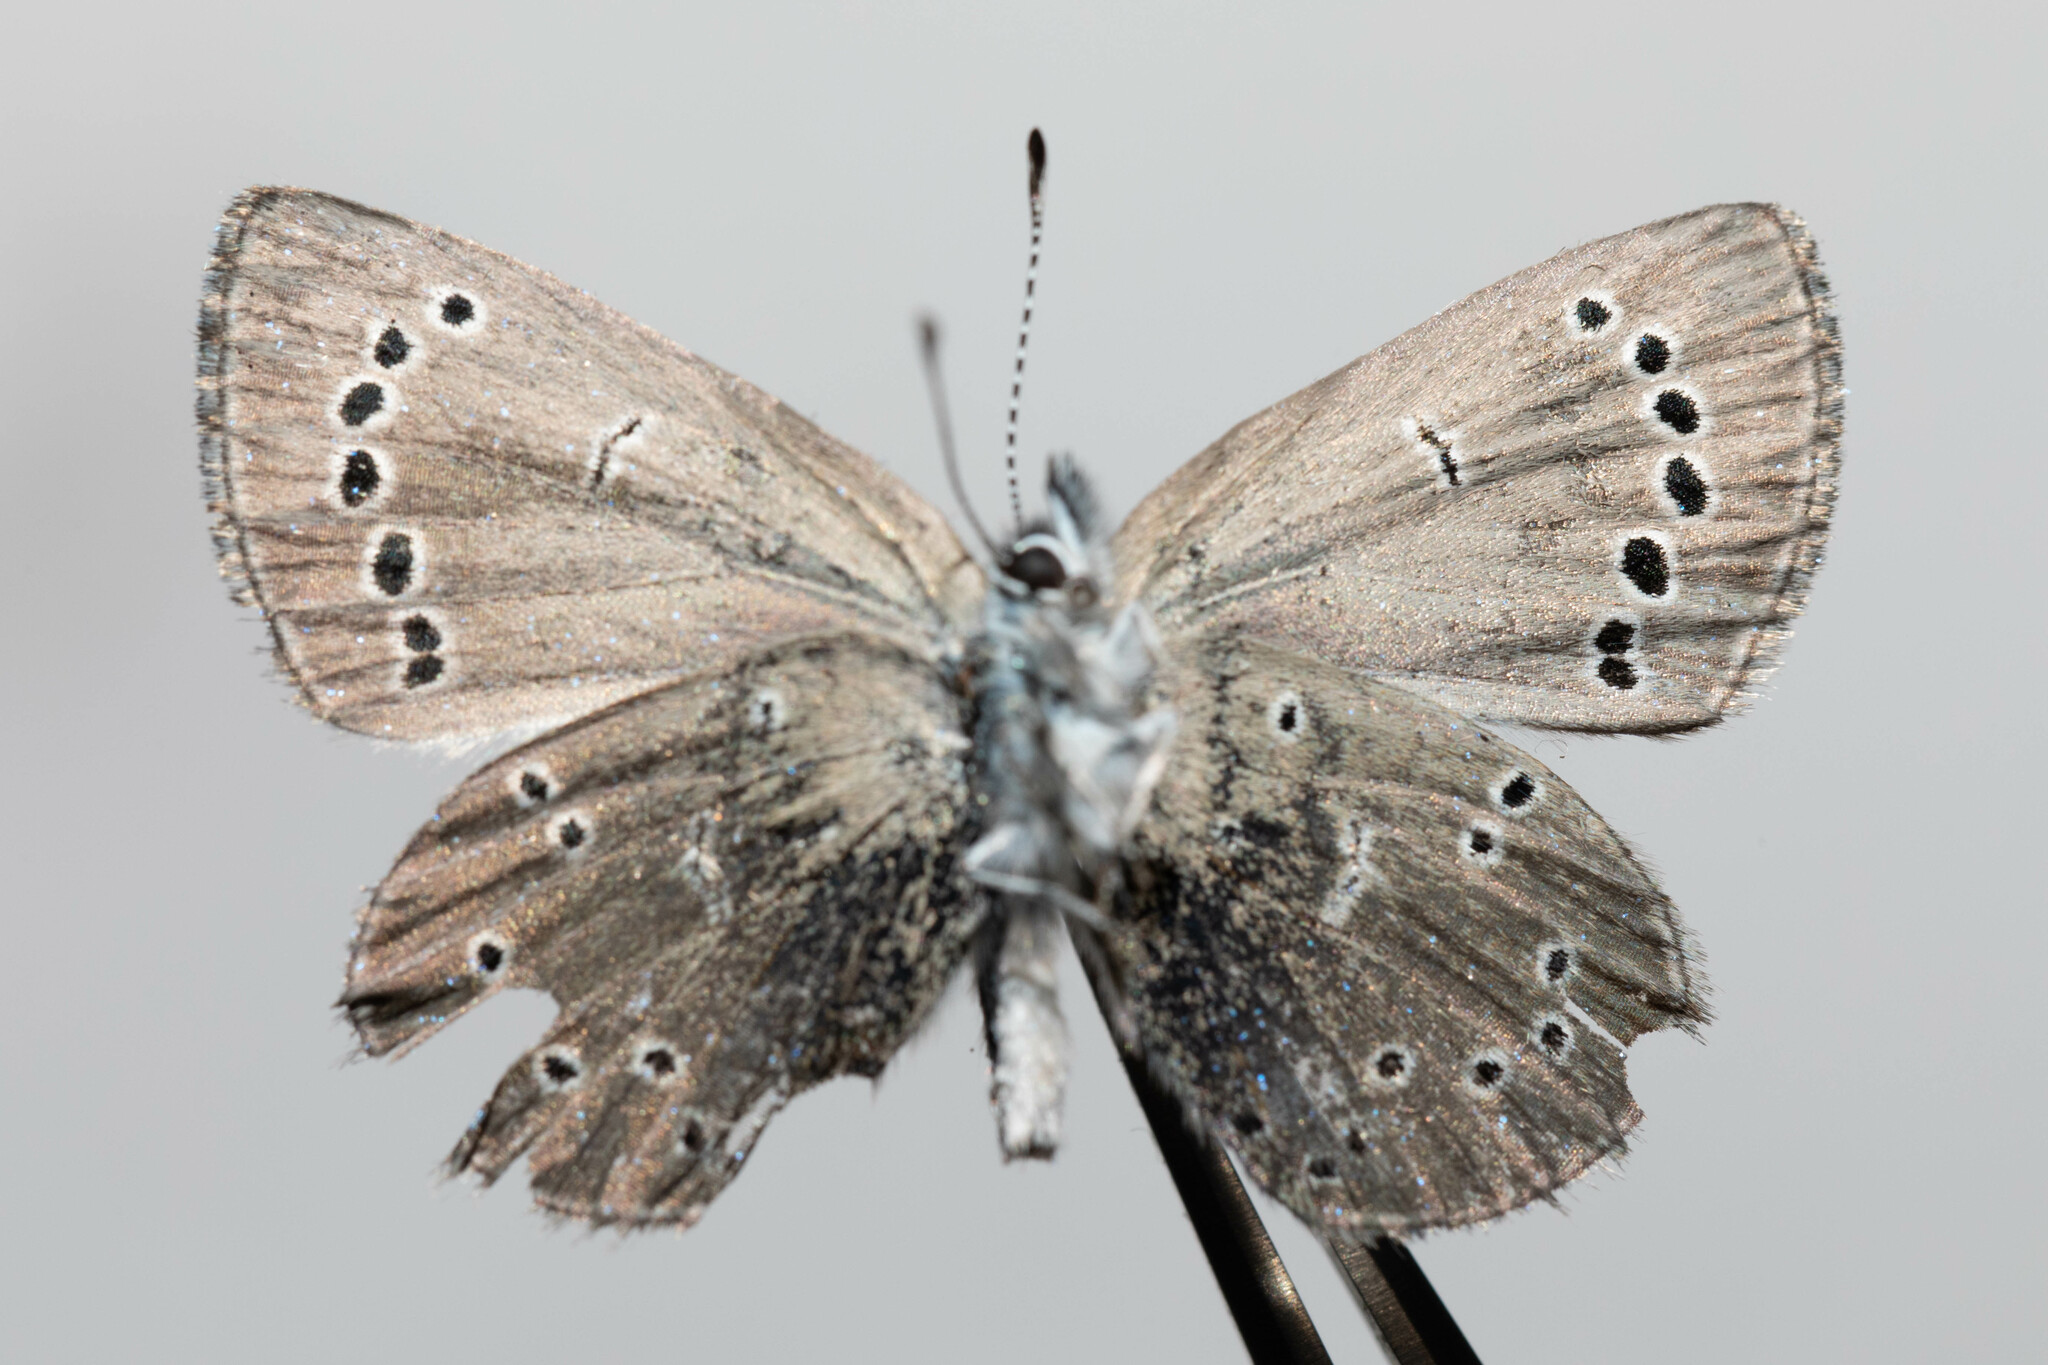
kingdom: Animalia
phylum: Arthropoda
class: Insecta
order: Lepidoptera
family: Lycaenidae
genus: Glaucopsyche
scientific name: Glaucopsyche lygdamus
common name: Silvery blue
